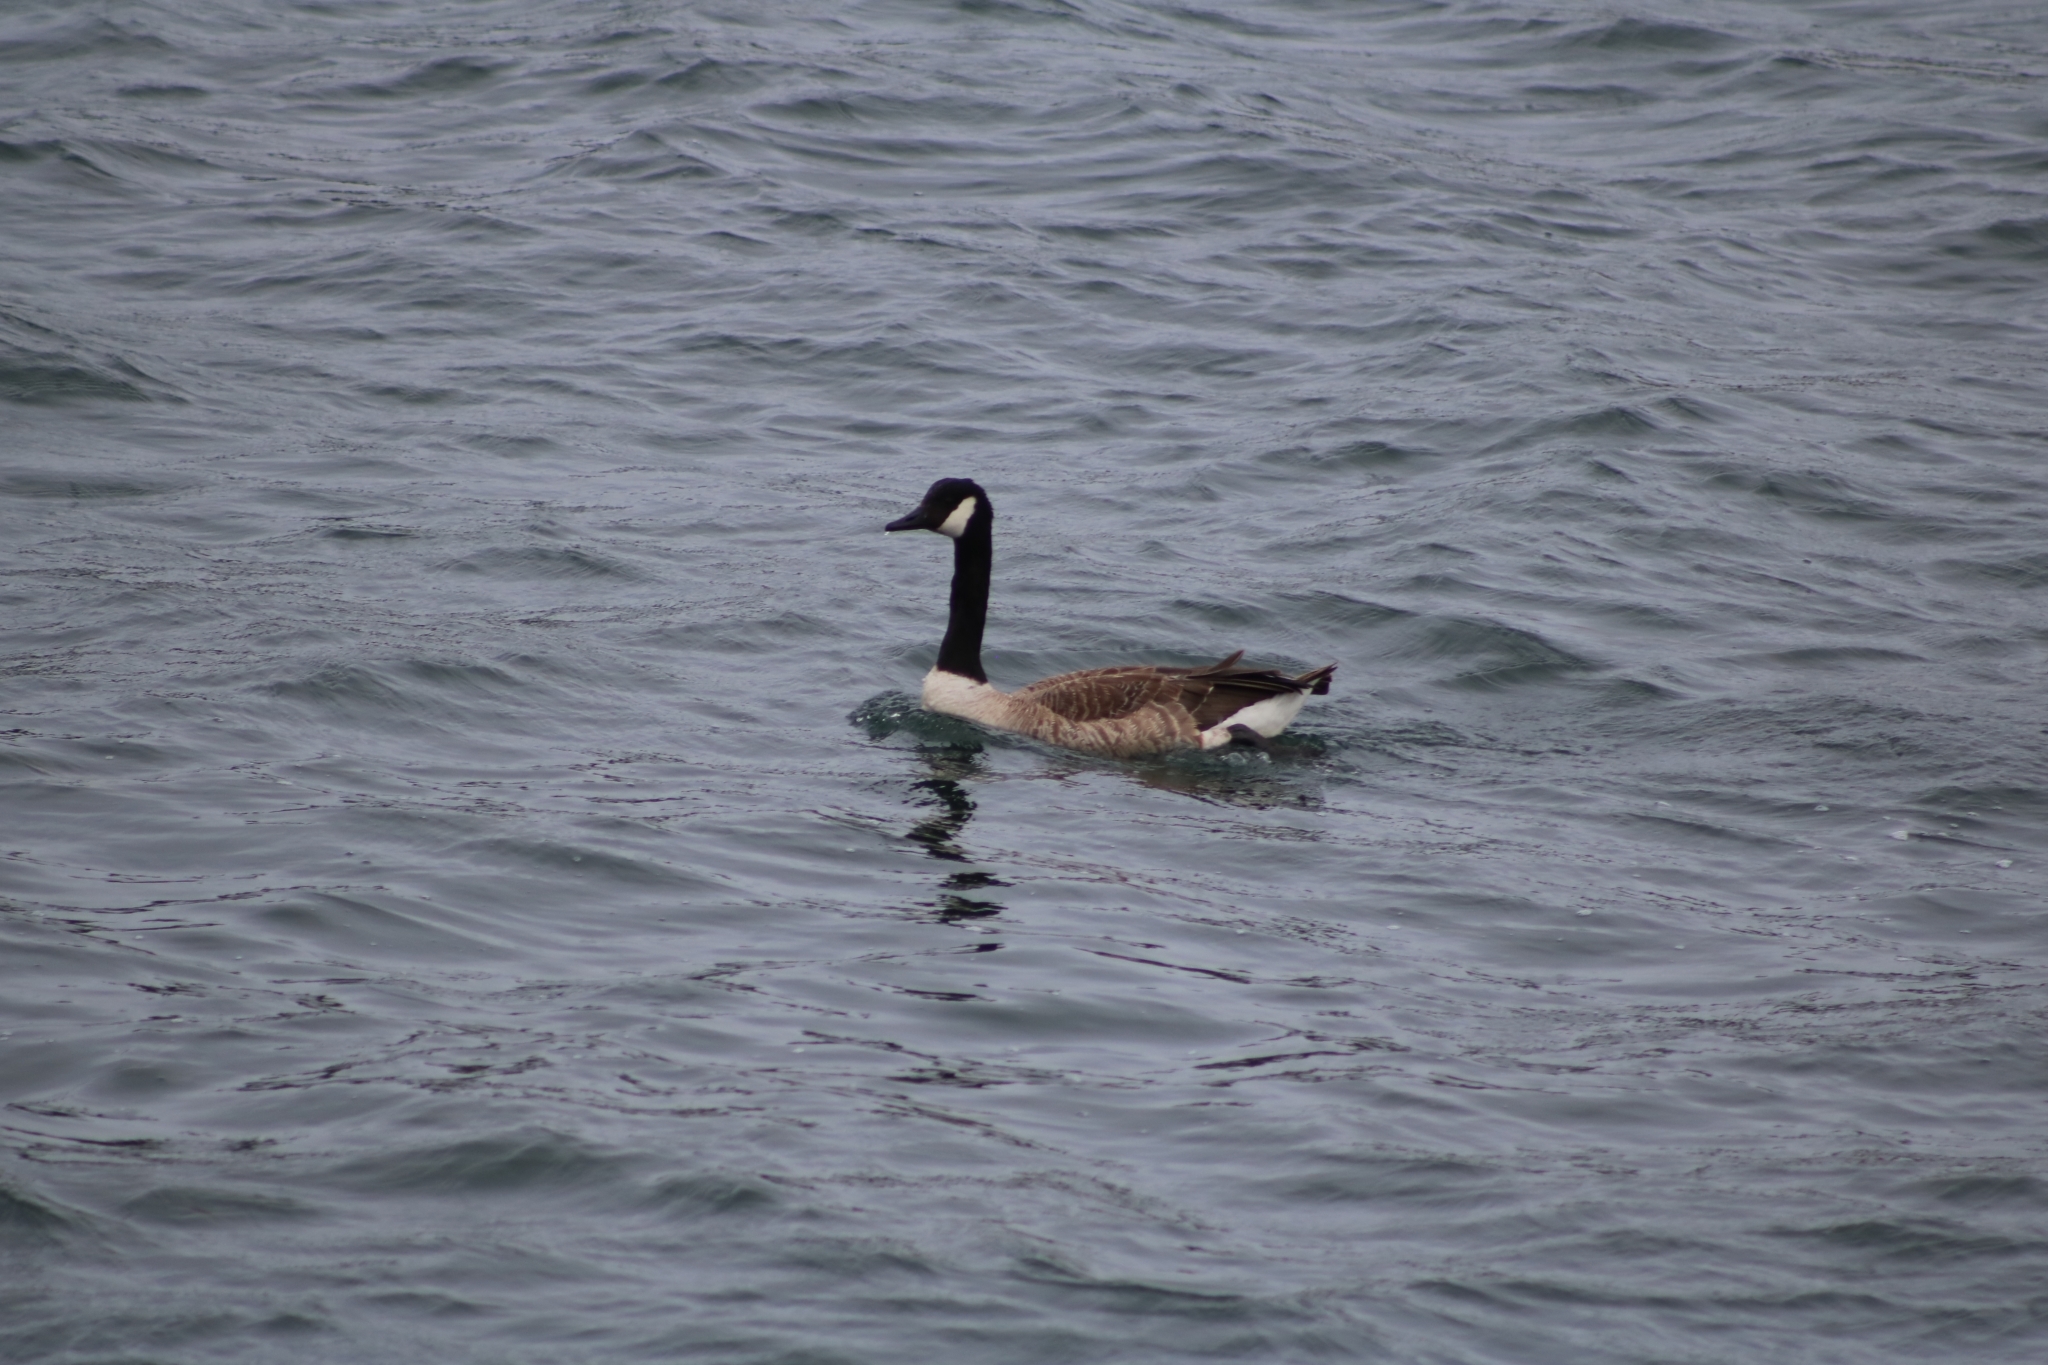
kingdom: Animalia
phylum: Chordata
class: Aves
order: Anseriformes
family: Anatidae
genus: Branta
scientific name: Branta canadensis
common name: Canada goose
